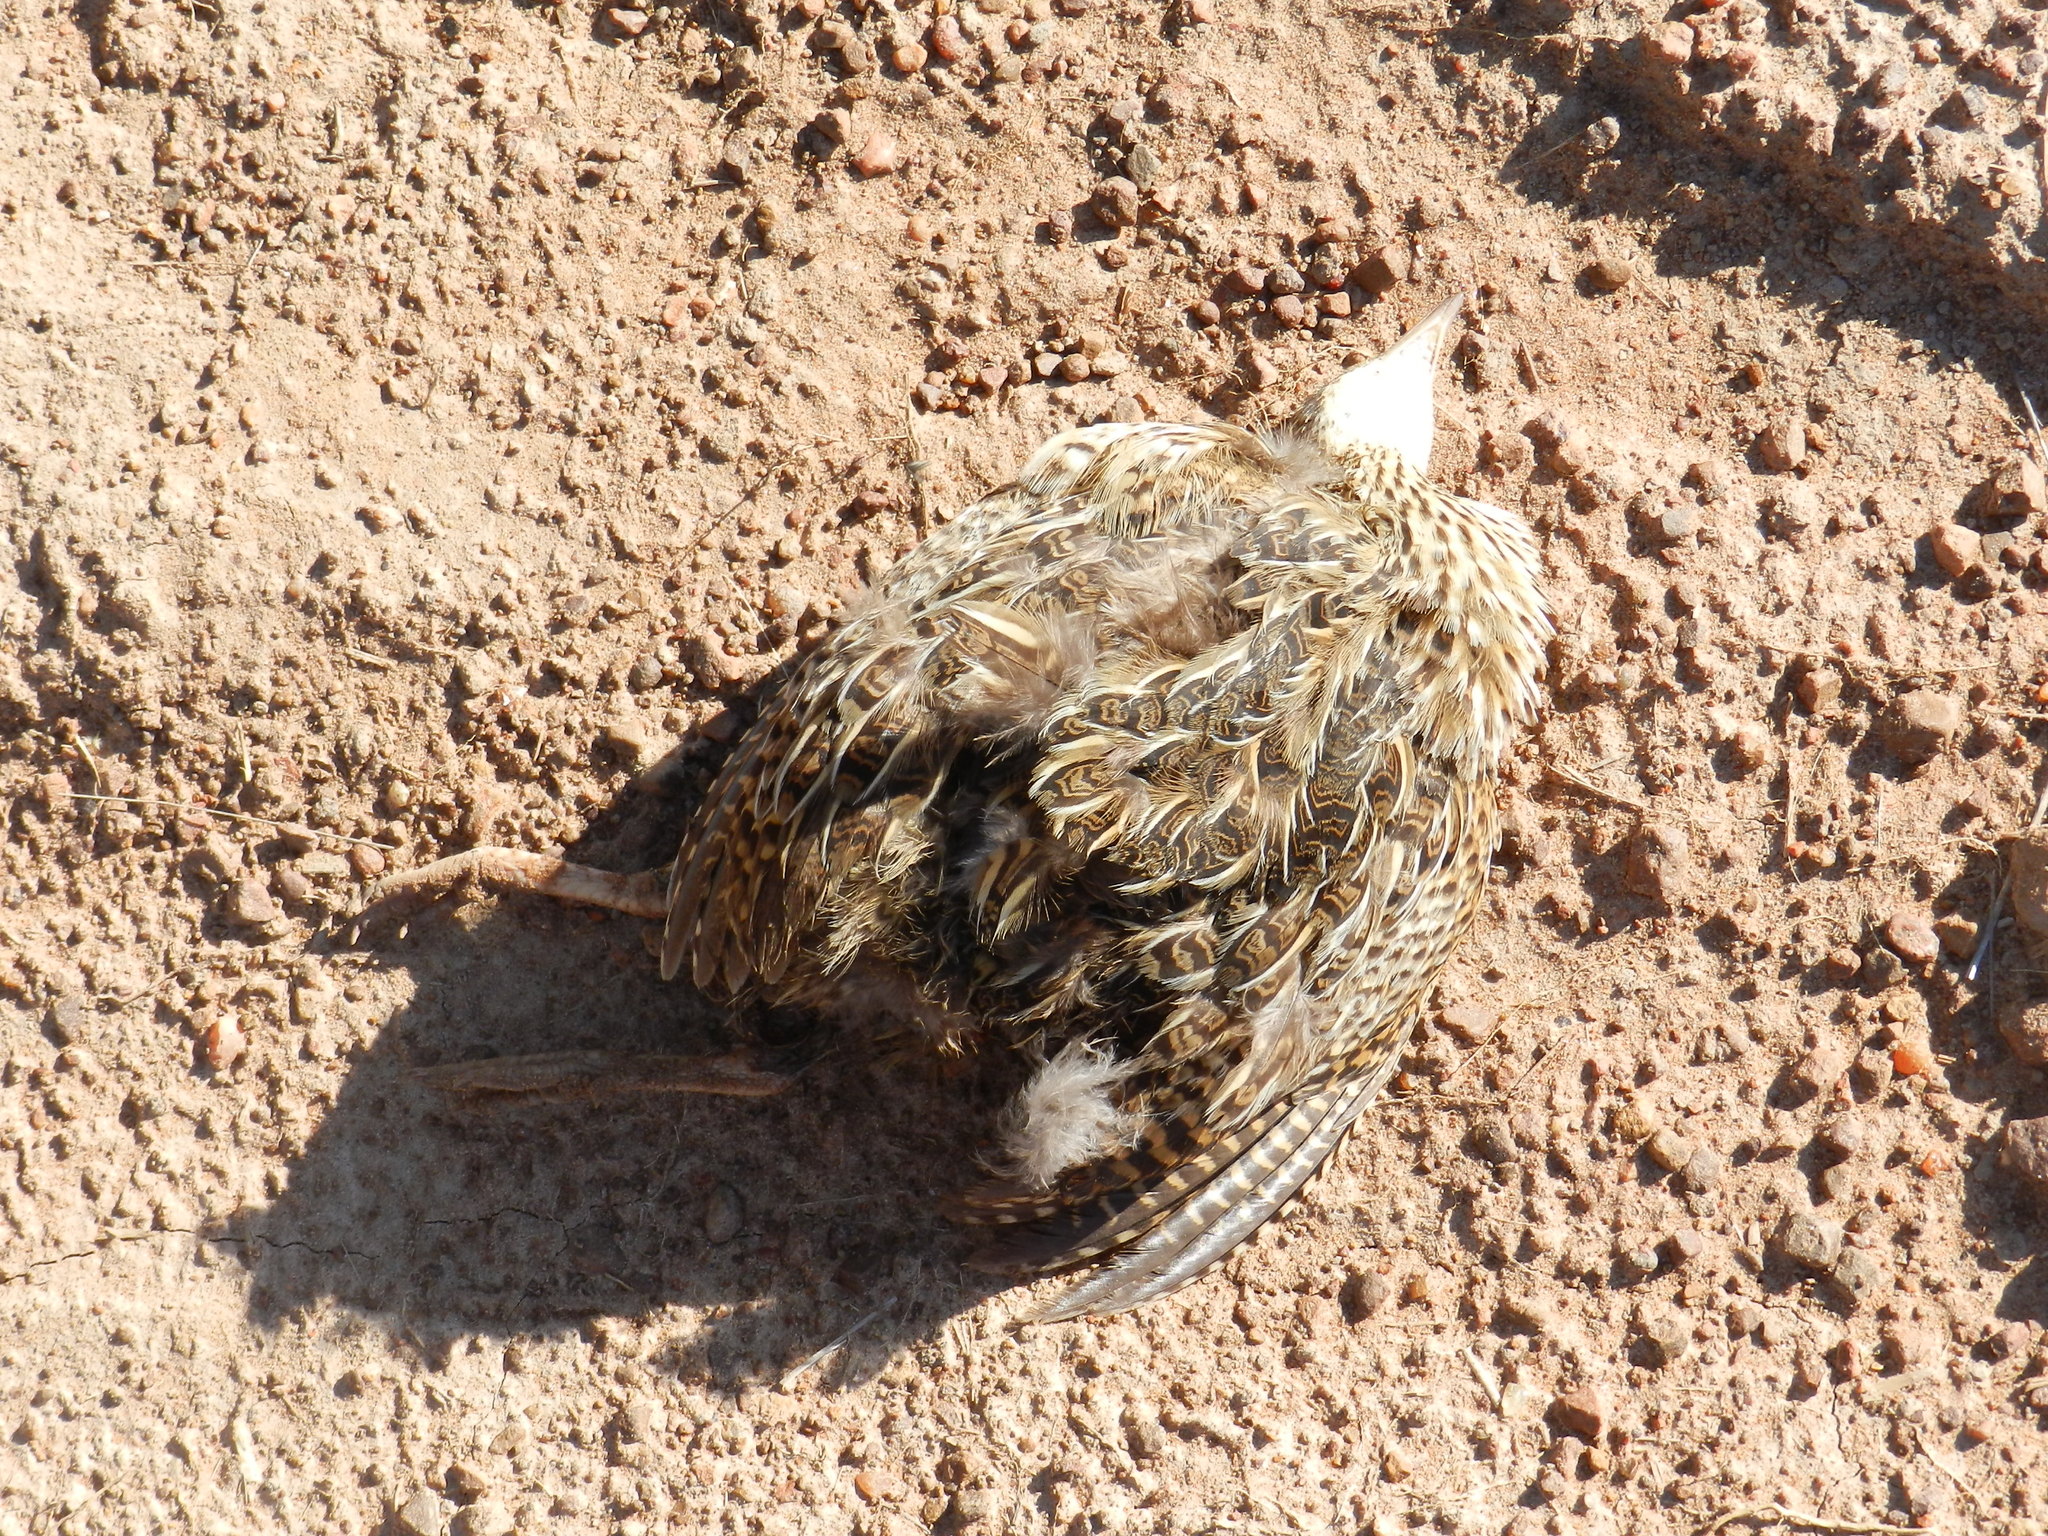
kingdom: Animalia
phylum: Chordata
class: Aves
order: Tinamiformes
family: Tinamidae
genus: Nothura
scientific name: Nothura maculosa
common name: Spotted nothura
